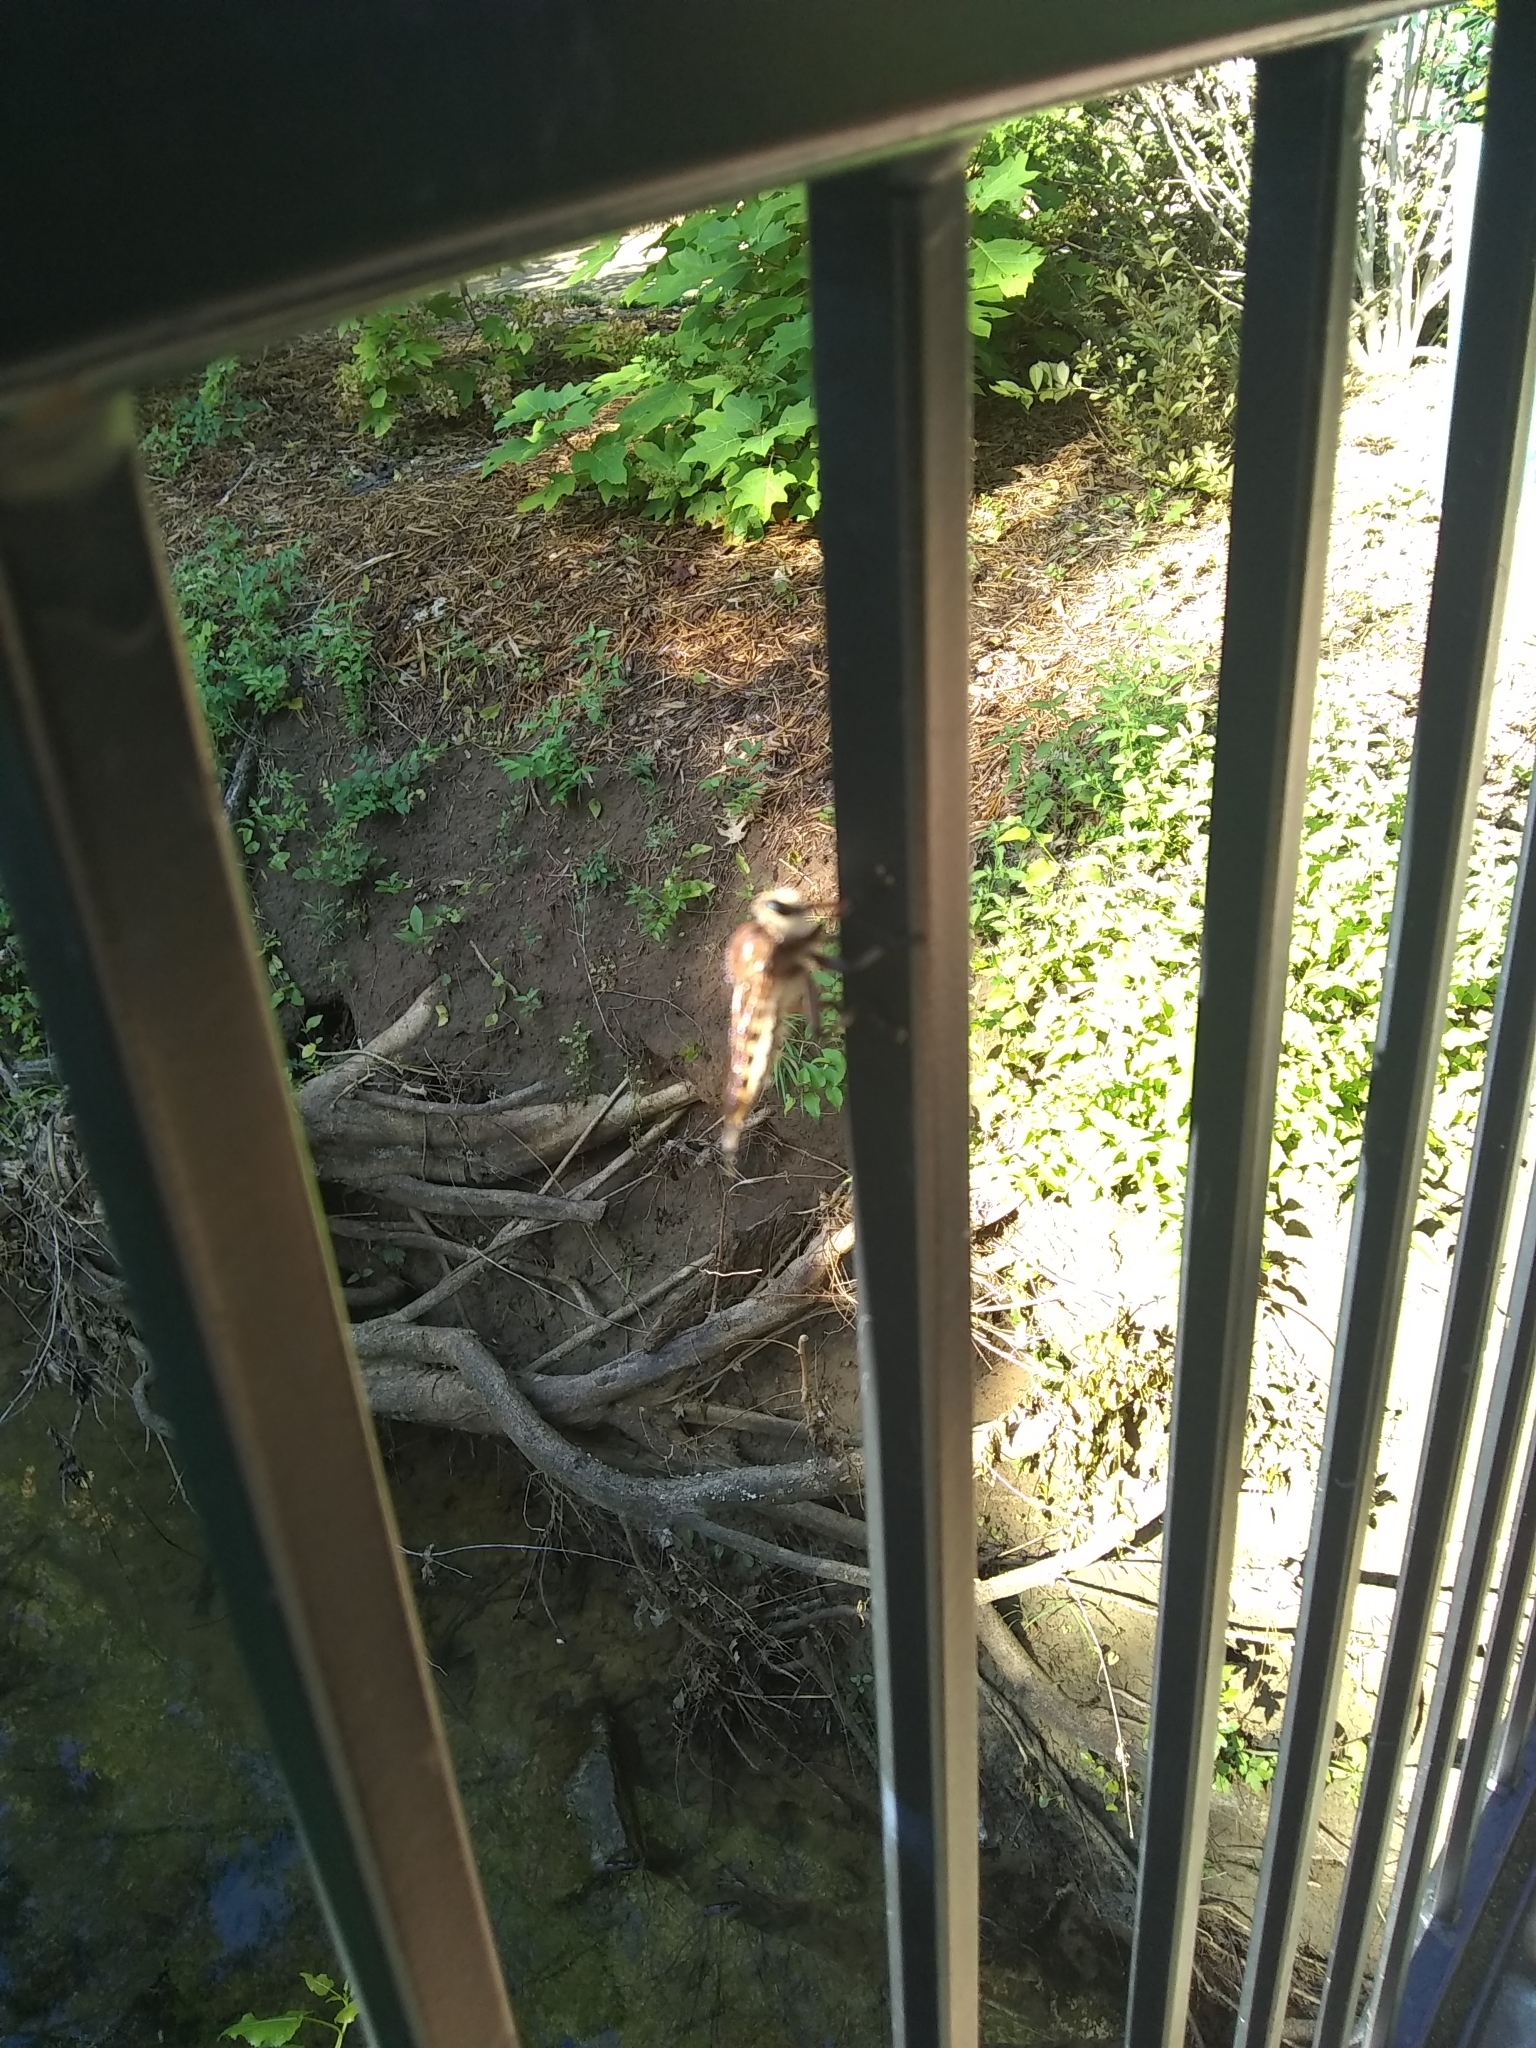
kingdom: Animalia
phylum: Arthropoda
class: Insecta
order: Diptera
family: Asilidae
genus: Promachus
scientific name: Promachus hinei
